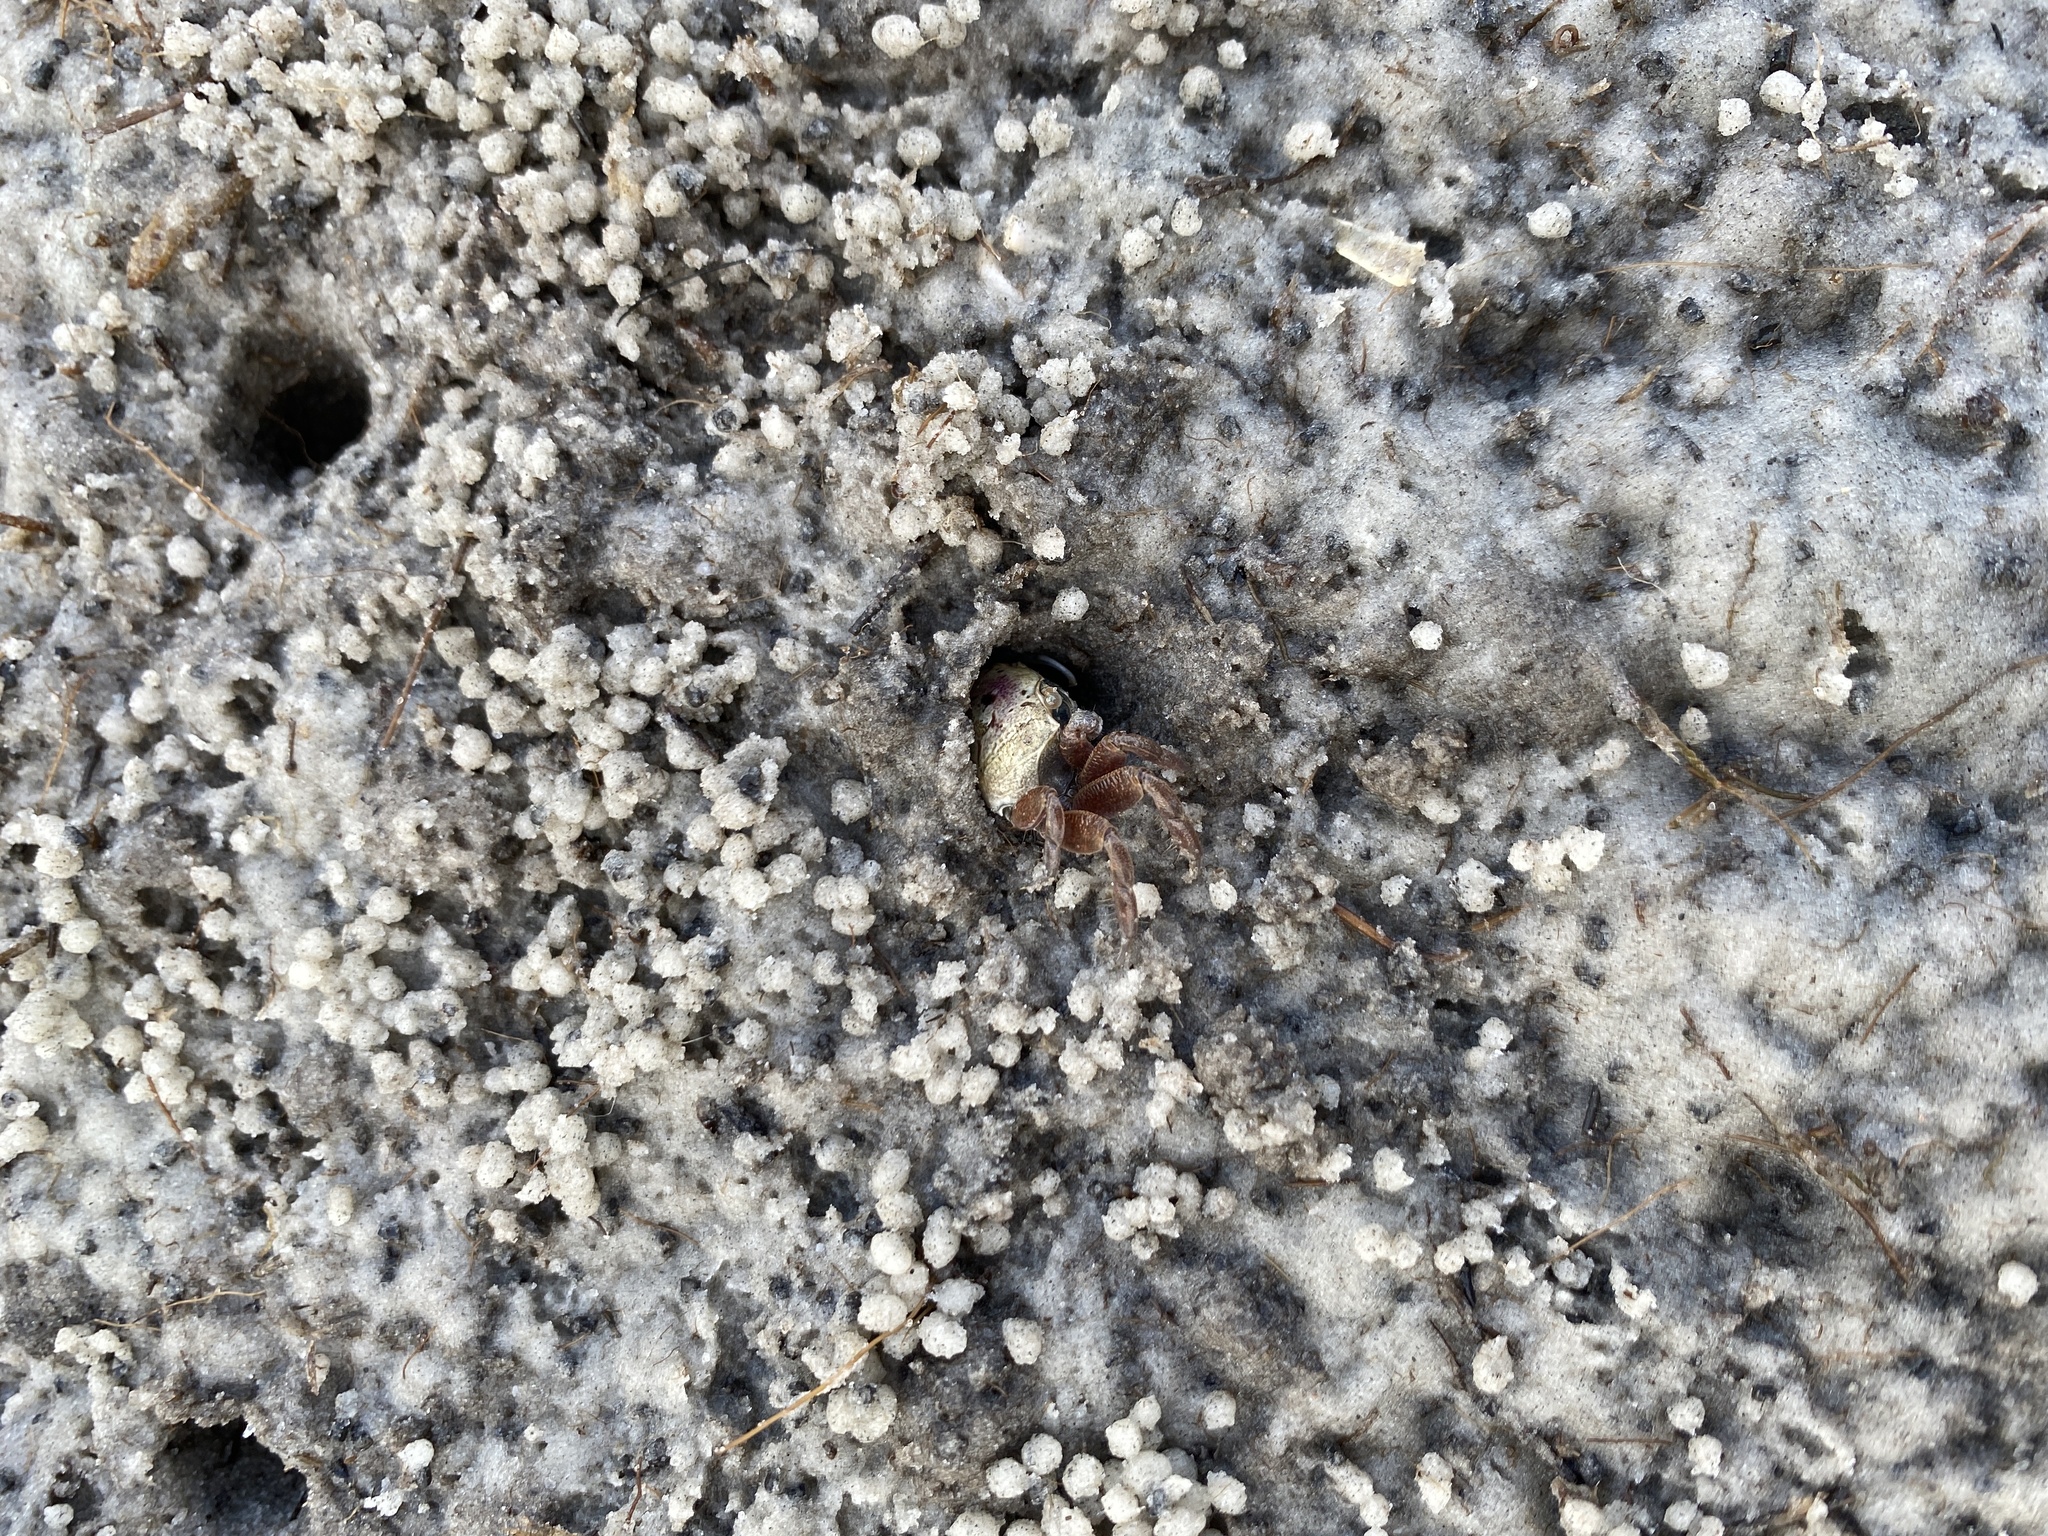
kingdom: Animalia
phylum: Arthropoda
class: Malacostraca
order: Decapoda
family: Ocypodidae
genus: Leptuca
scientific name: Leptuca pugilator
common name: Atlantic sand fiddler crab
